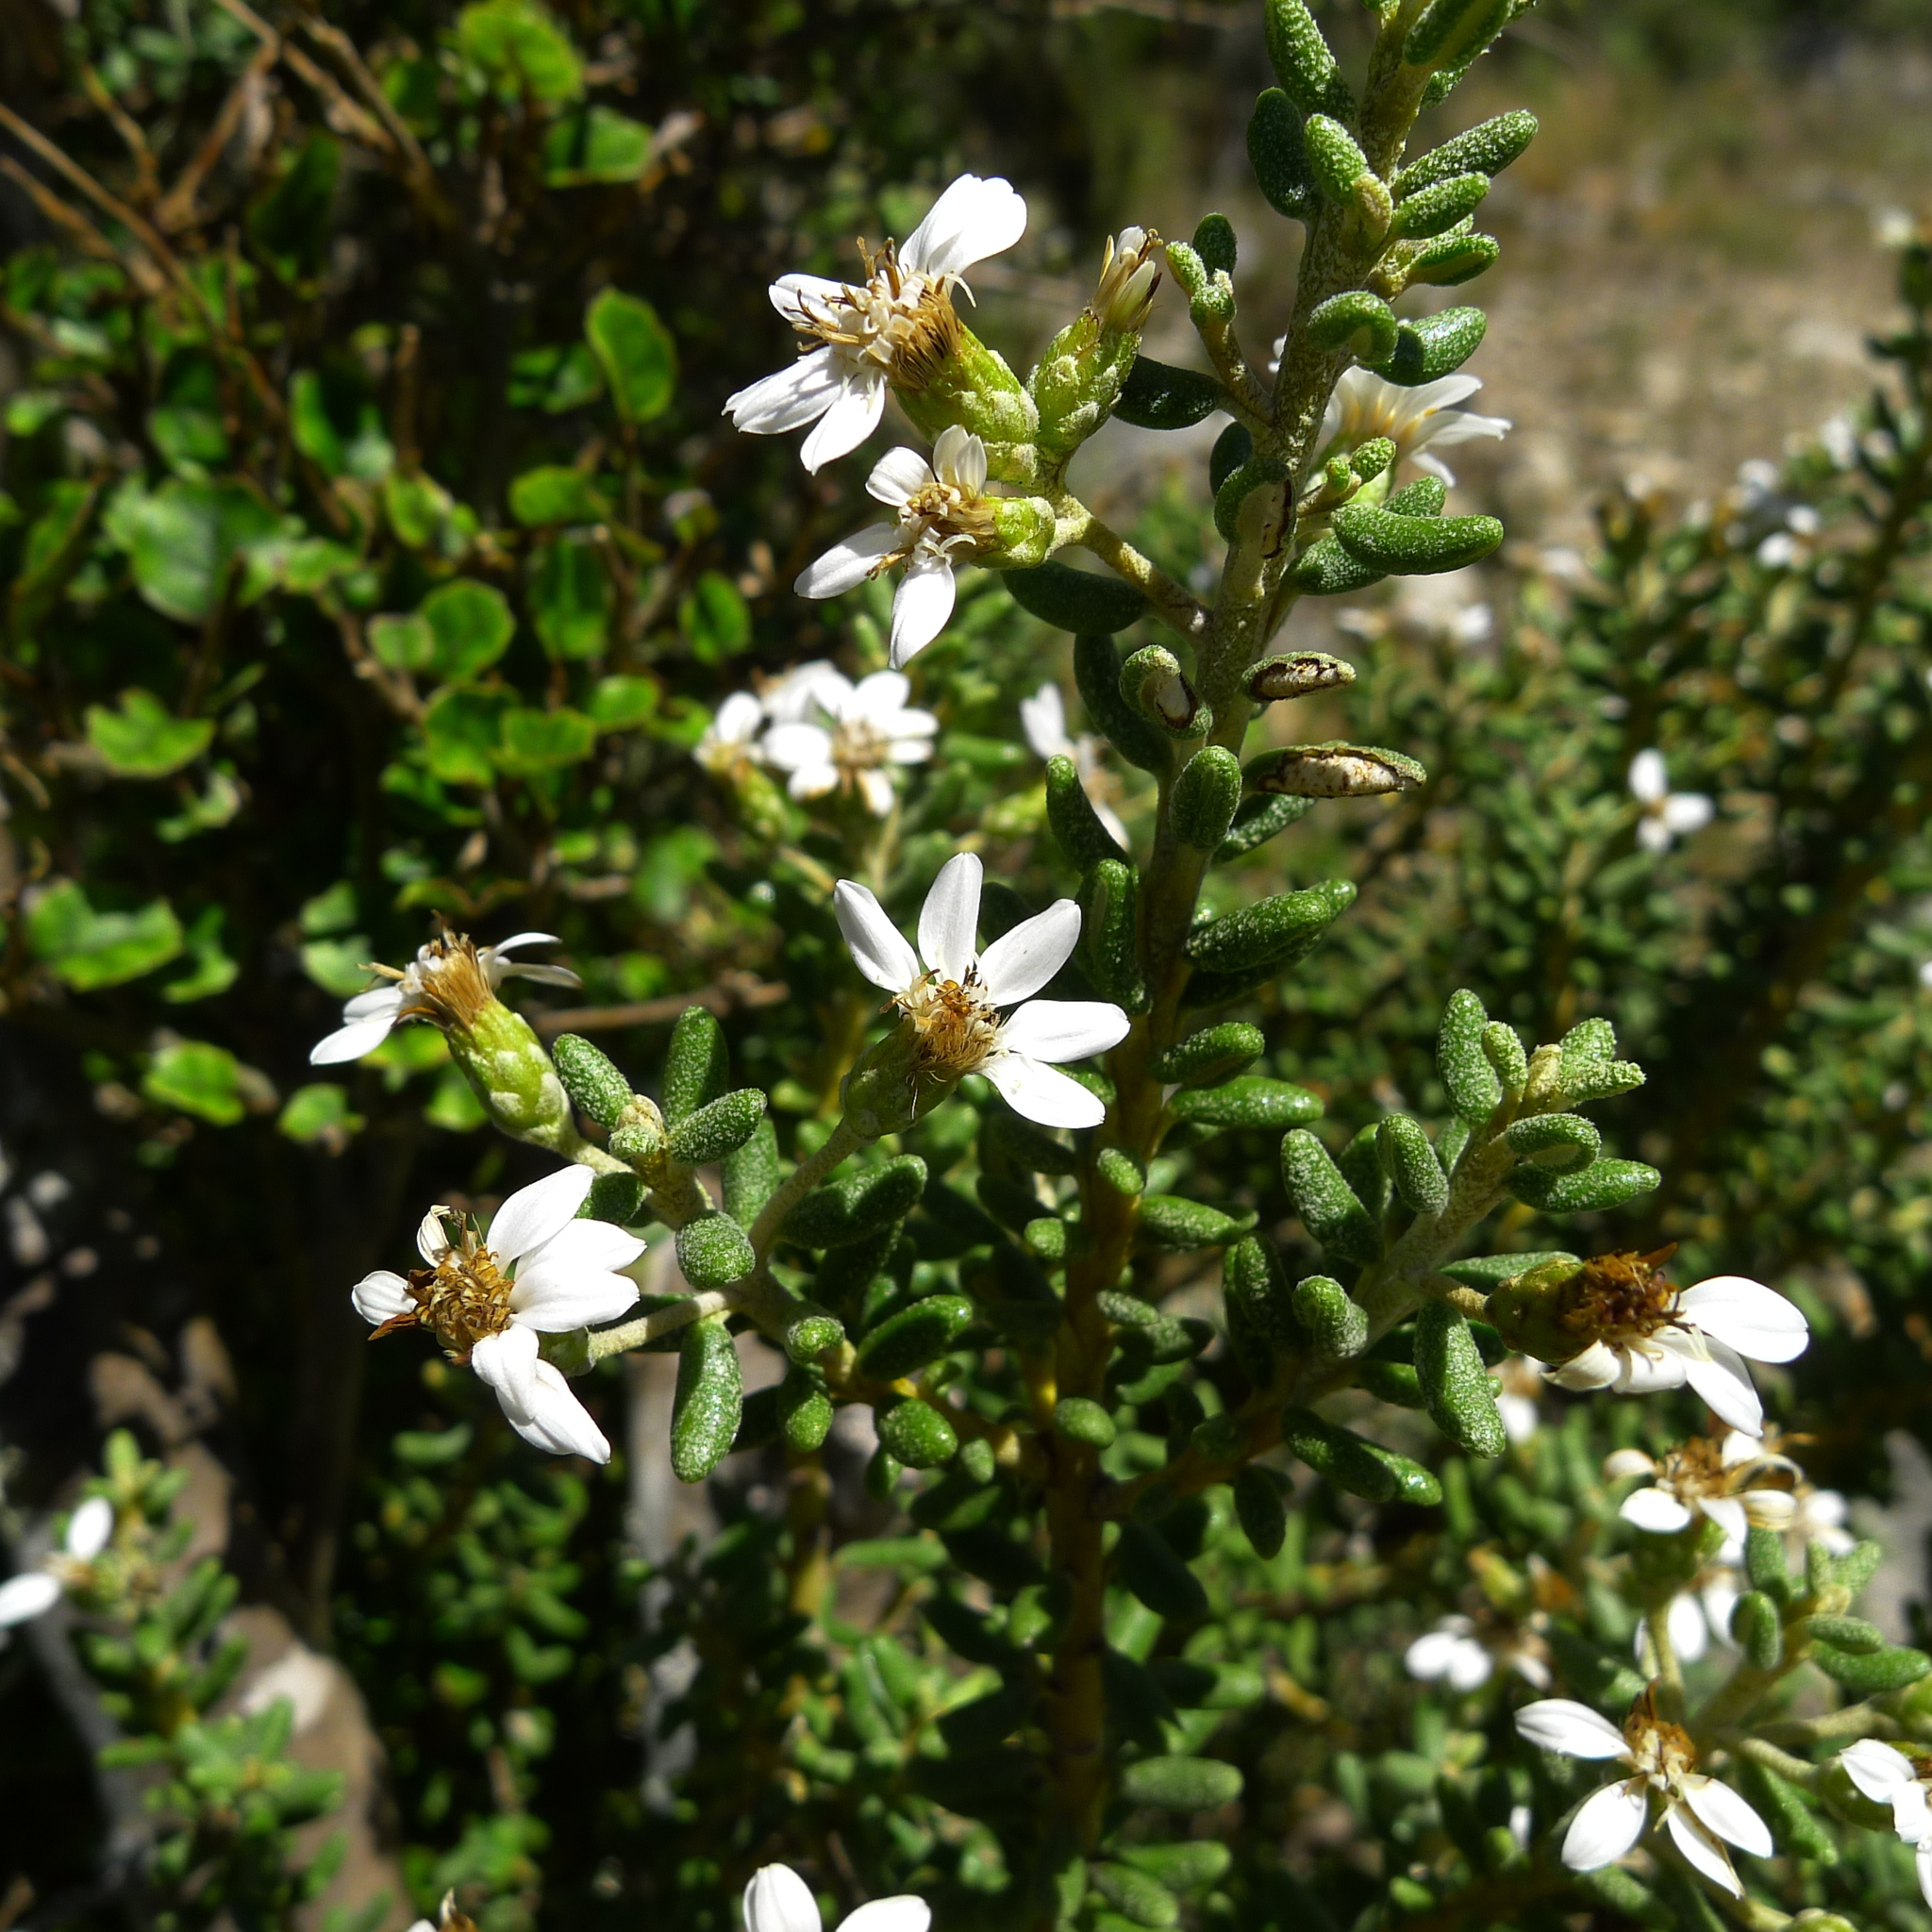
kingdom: Plantae
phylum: Tracheophyta
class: Magnoliopsida
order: Asterales
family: Asteraceae
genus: Olearia
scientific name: Olearia cymbifolia
